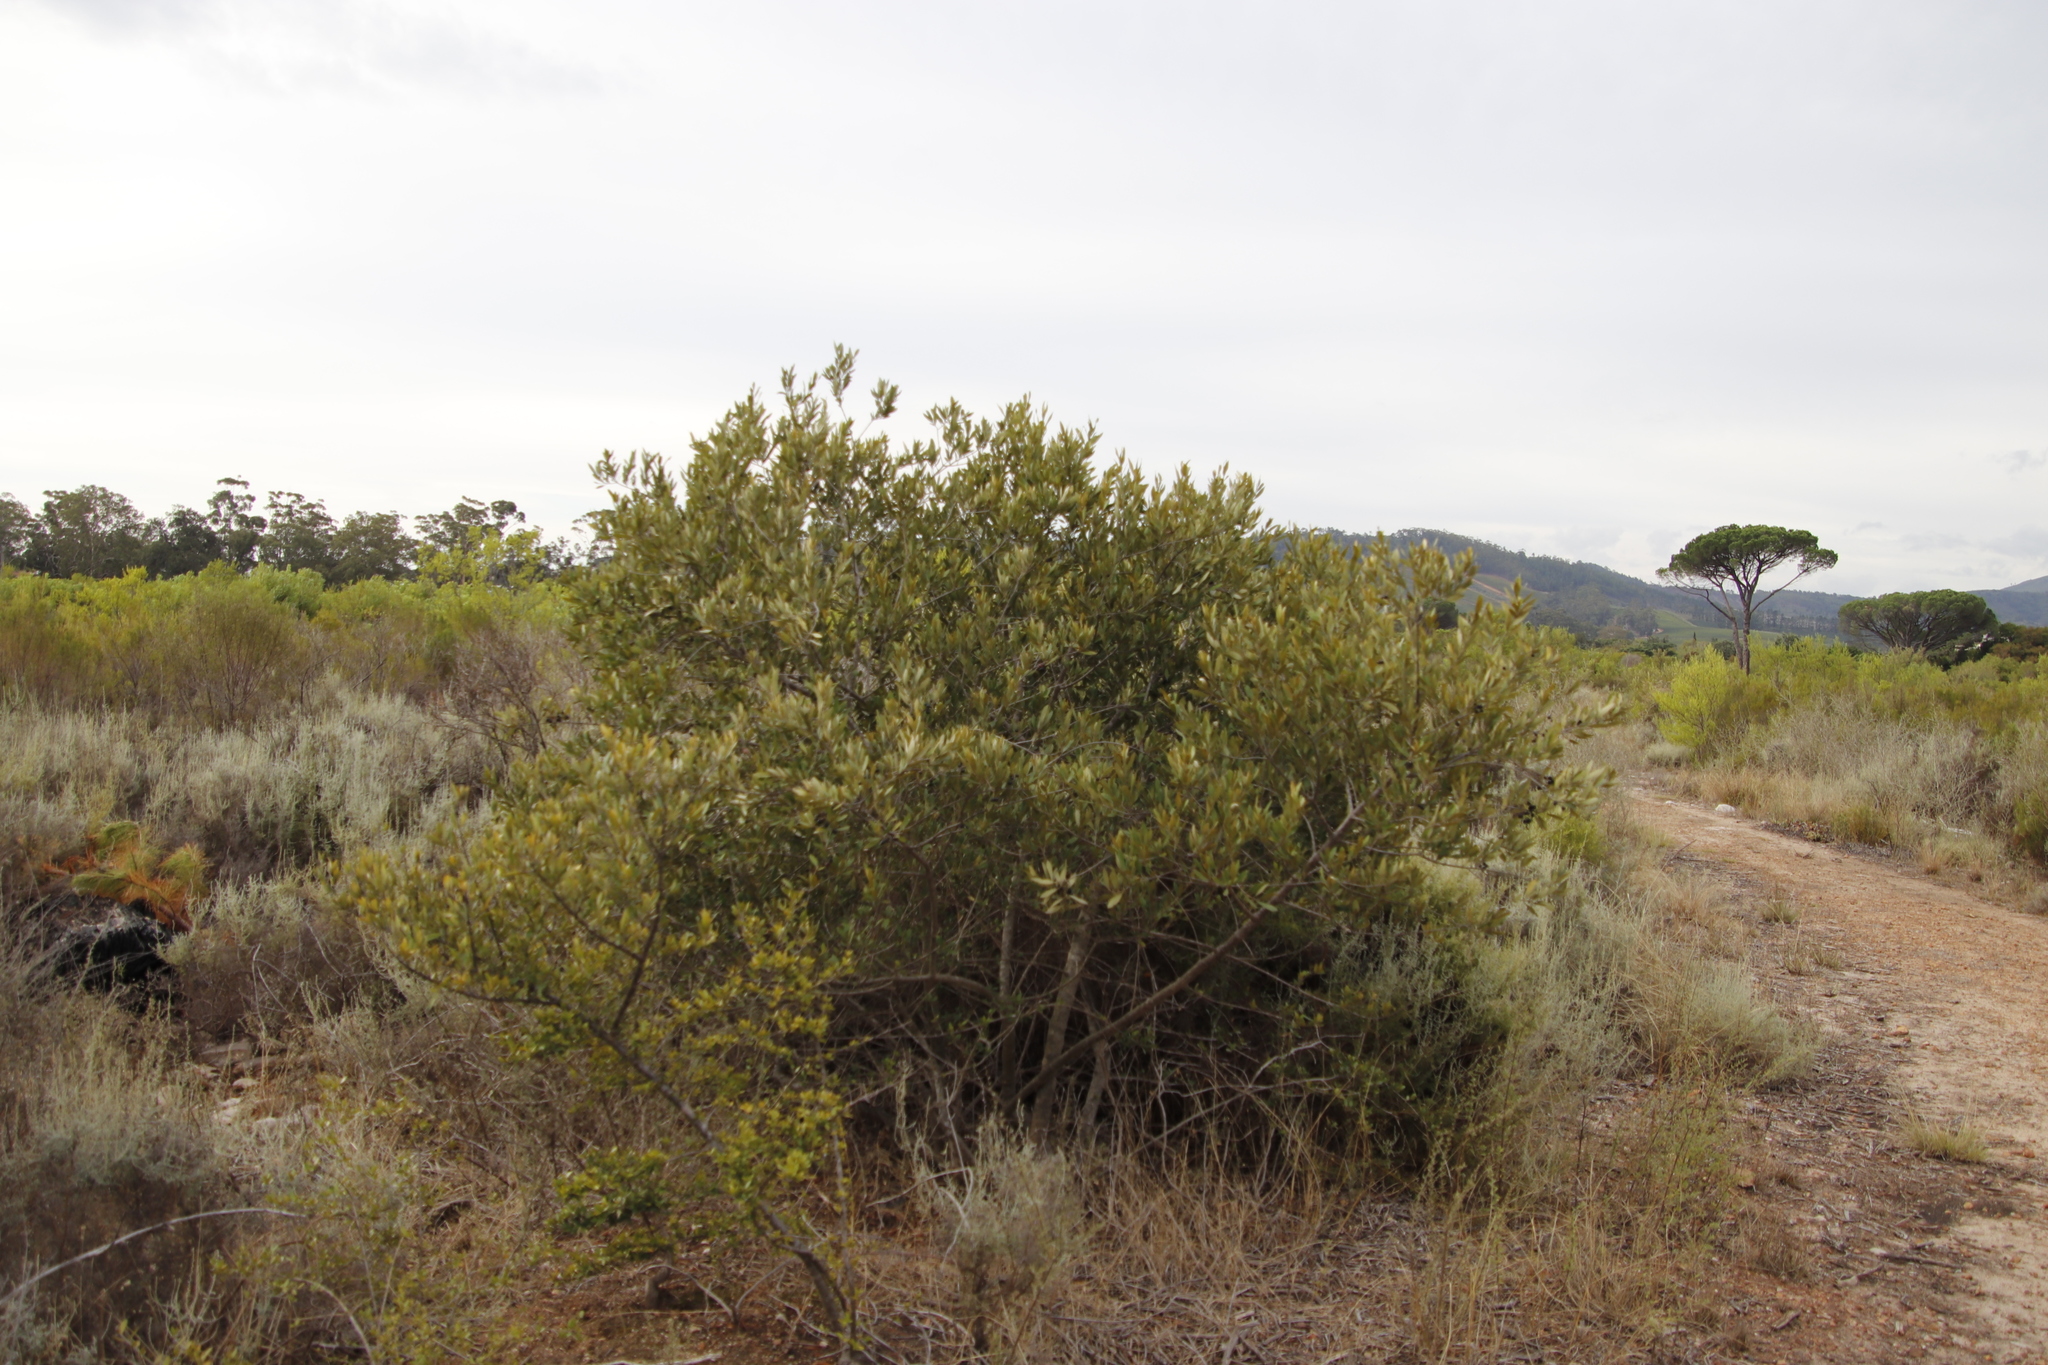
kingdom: Plantae
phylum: Tracheophyta
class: Magnoliopsida
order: Lamiales
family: Oleaceae
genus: Olea
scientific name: Olea europaea
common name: Olive
